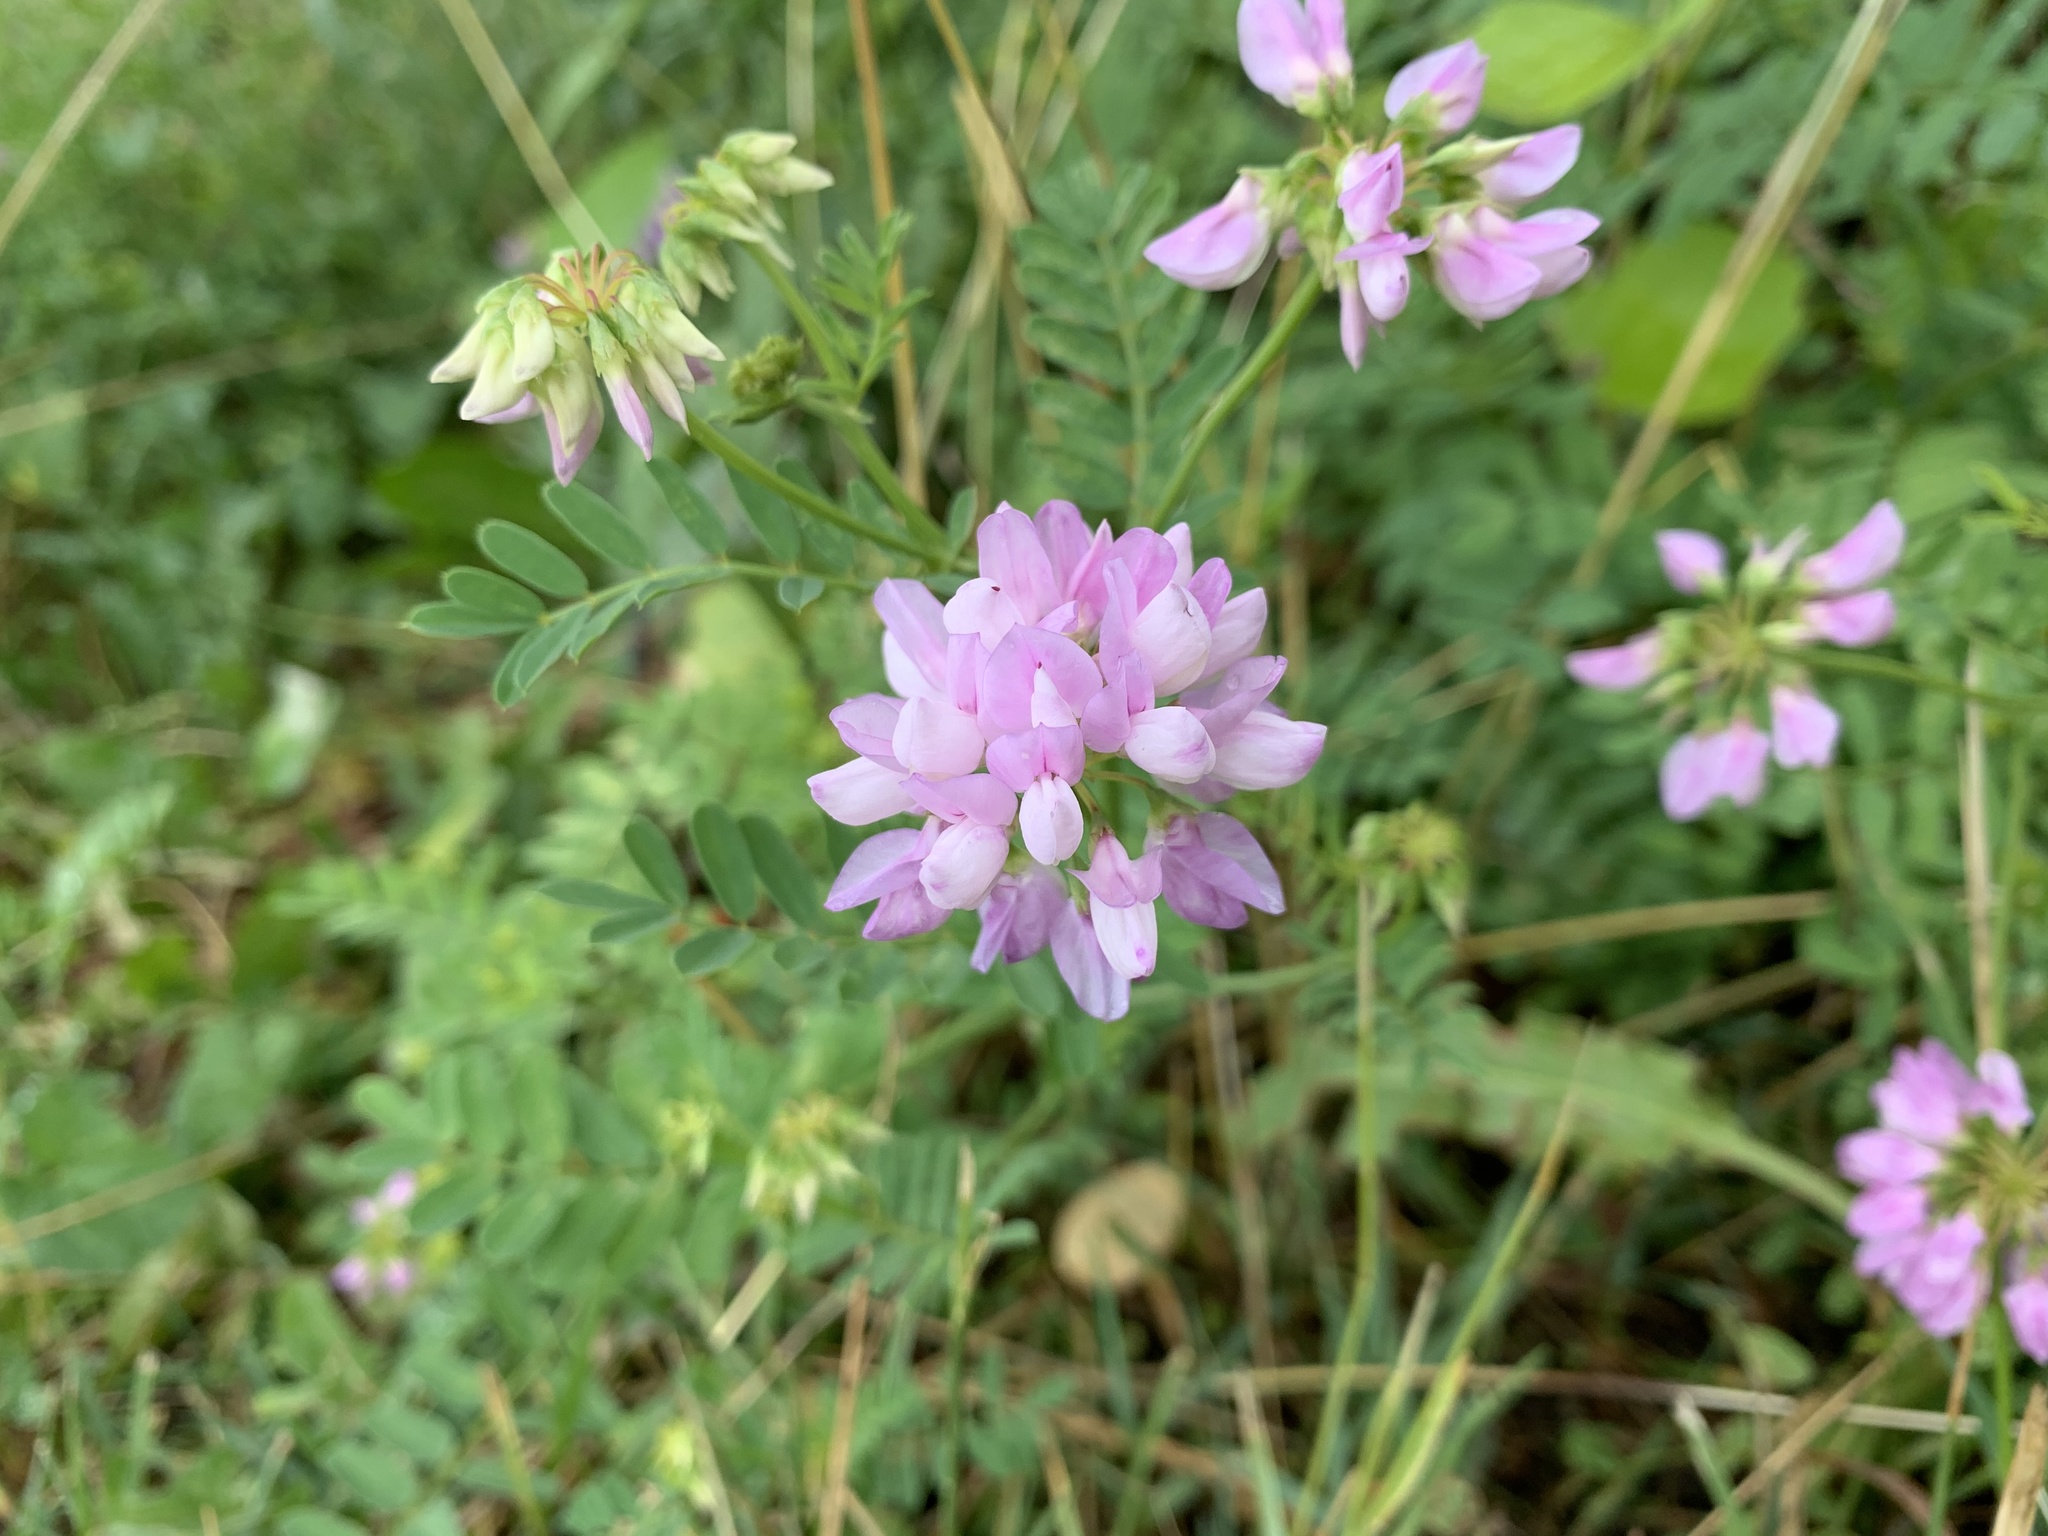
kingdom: Plantae
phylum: Tracheophyta
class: Magnoliopsida
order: Fabales
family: Fabaceae
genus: Coronilla
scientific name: Coronilla varia
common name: Crownvetch
